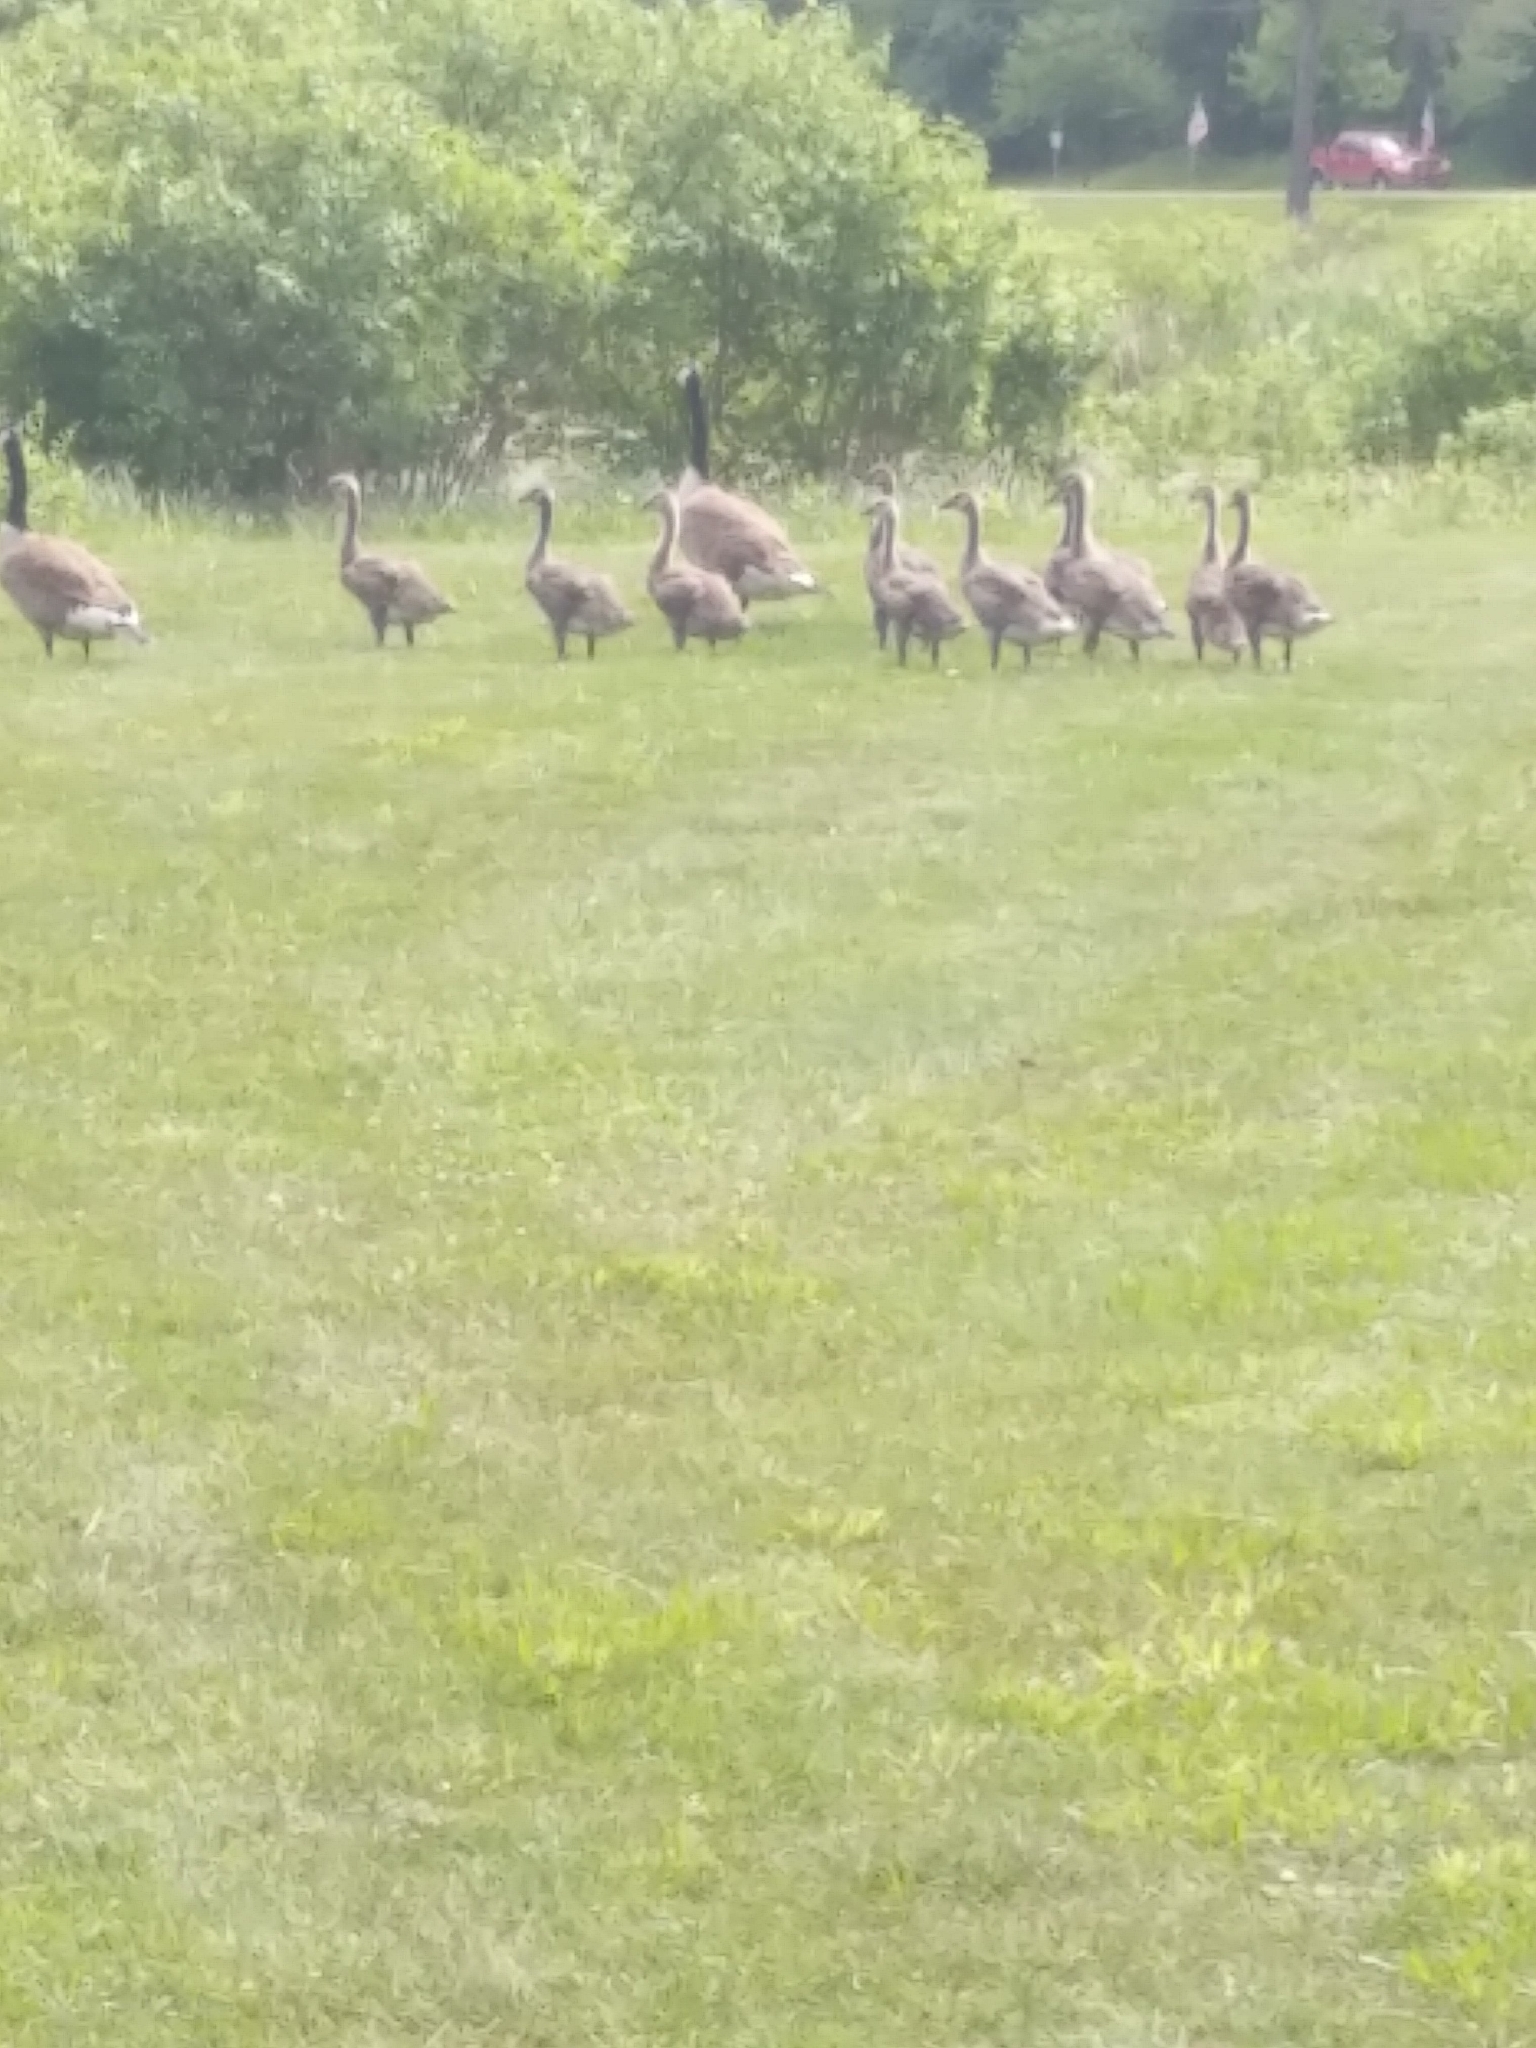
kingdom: Animalia
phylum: Chordata
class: Aves
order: Anseriformes
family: Anatidae
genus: Branta
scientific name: Branta canadensis
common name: Canada goose
